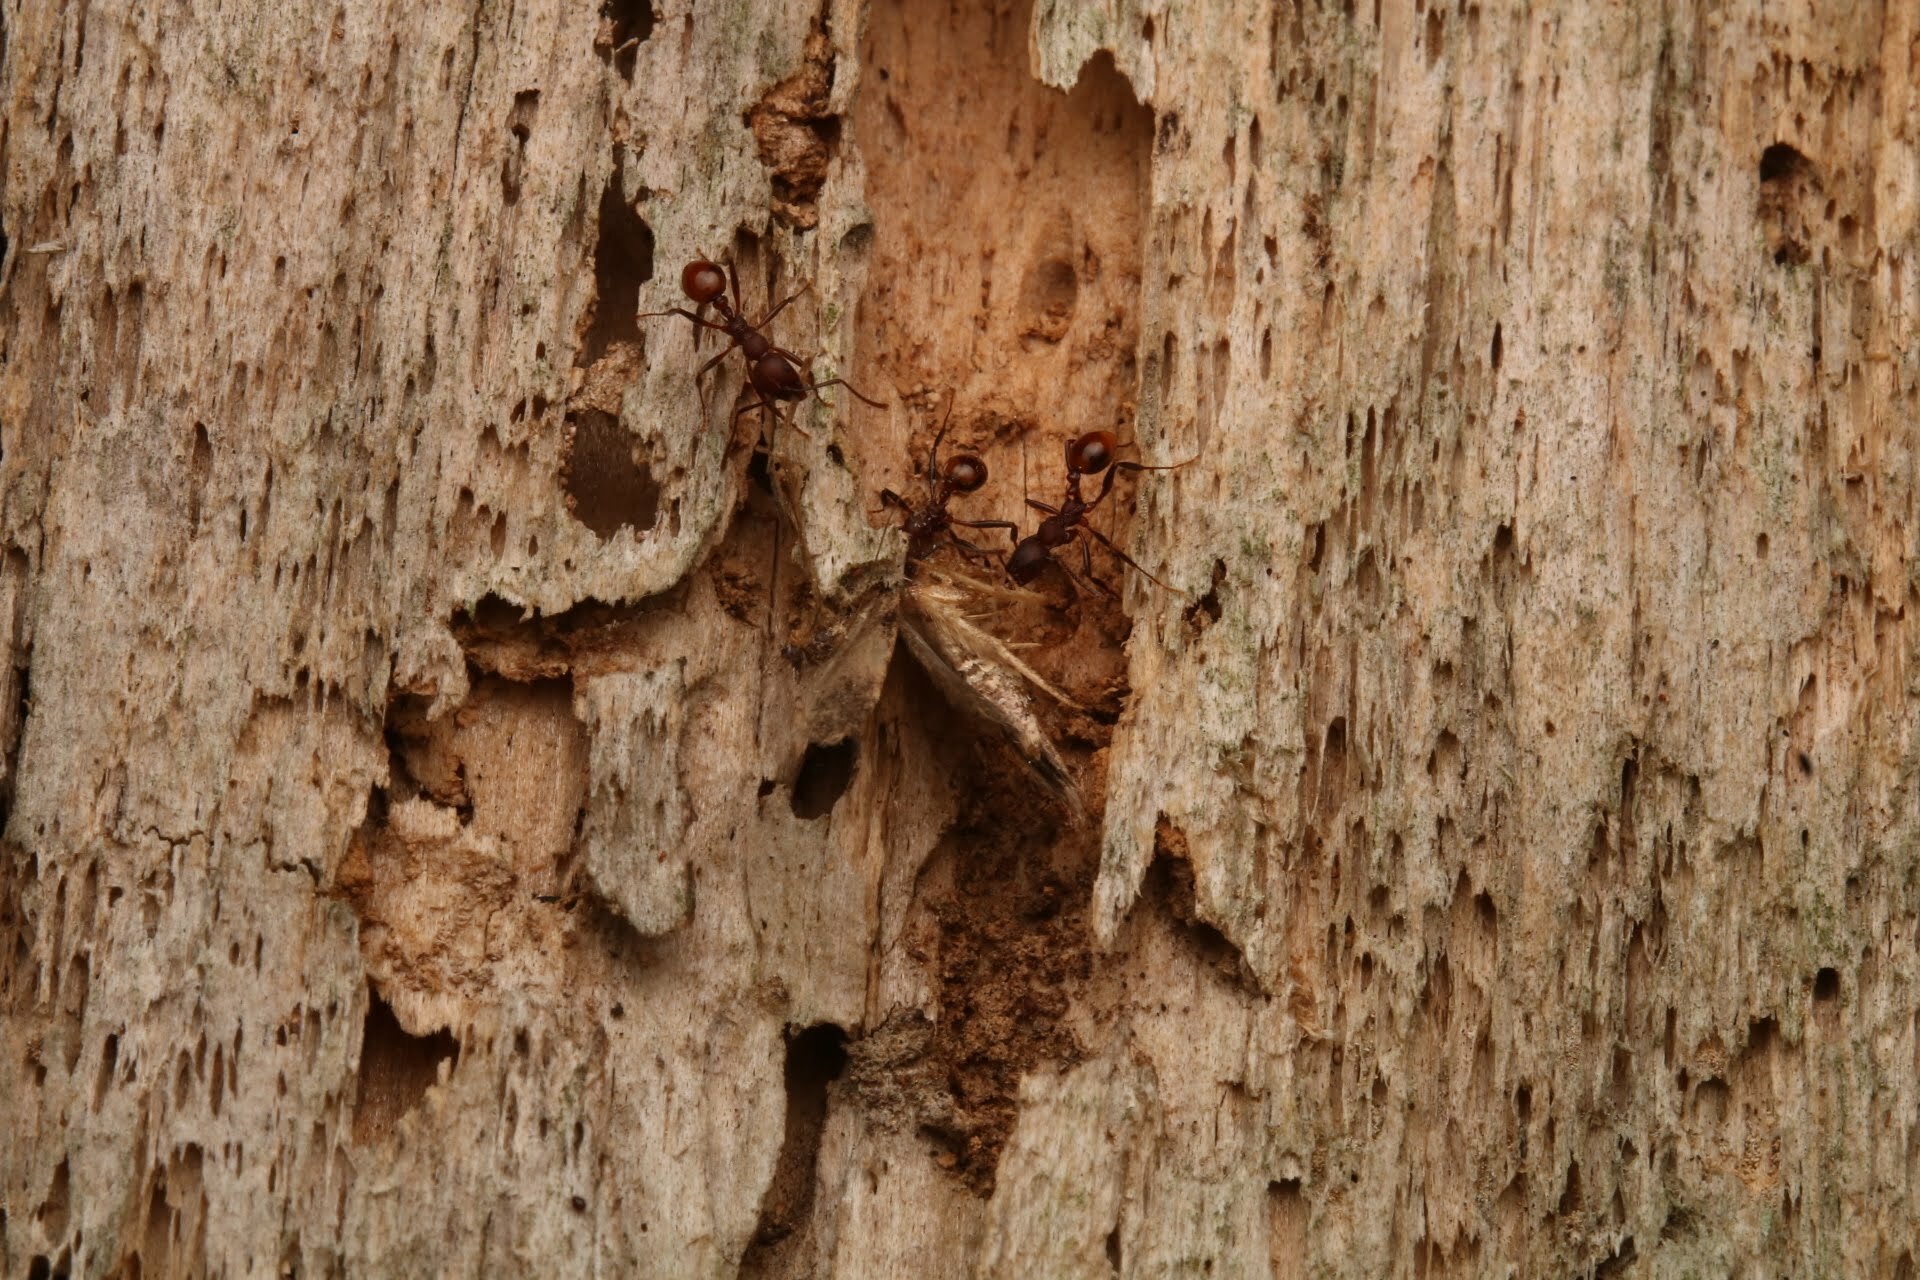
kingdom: Animalia
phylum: Arthropoda
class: Insecta
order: Hymenoptera
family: Formicidae
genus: Aphaenogaster
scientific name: Aphaenogaster tennesseensis
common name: Tennessee thread-waisted ant
